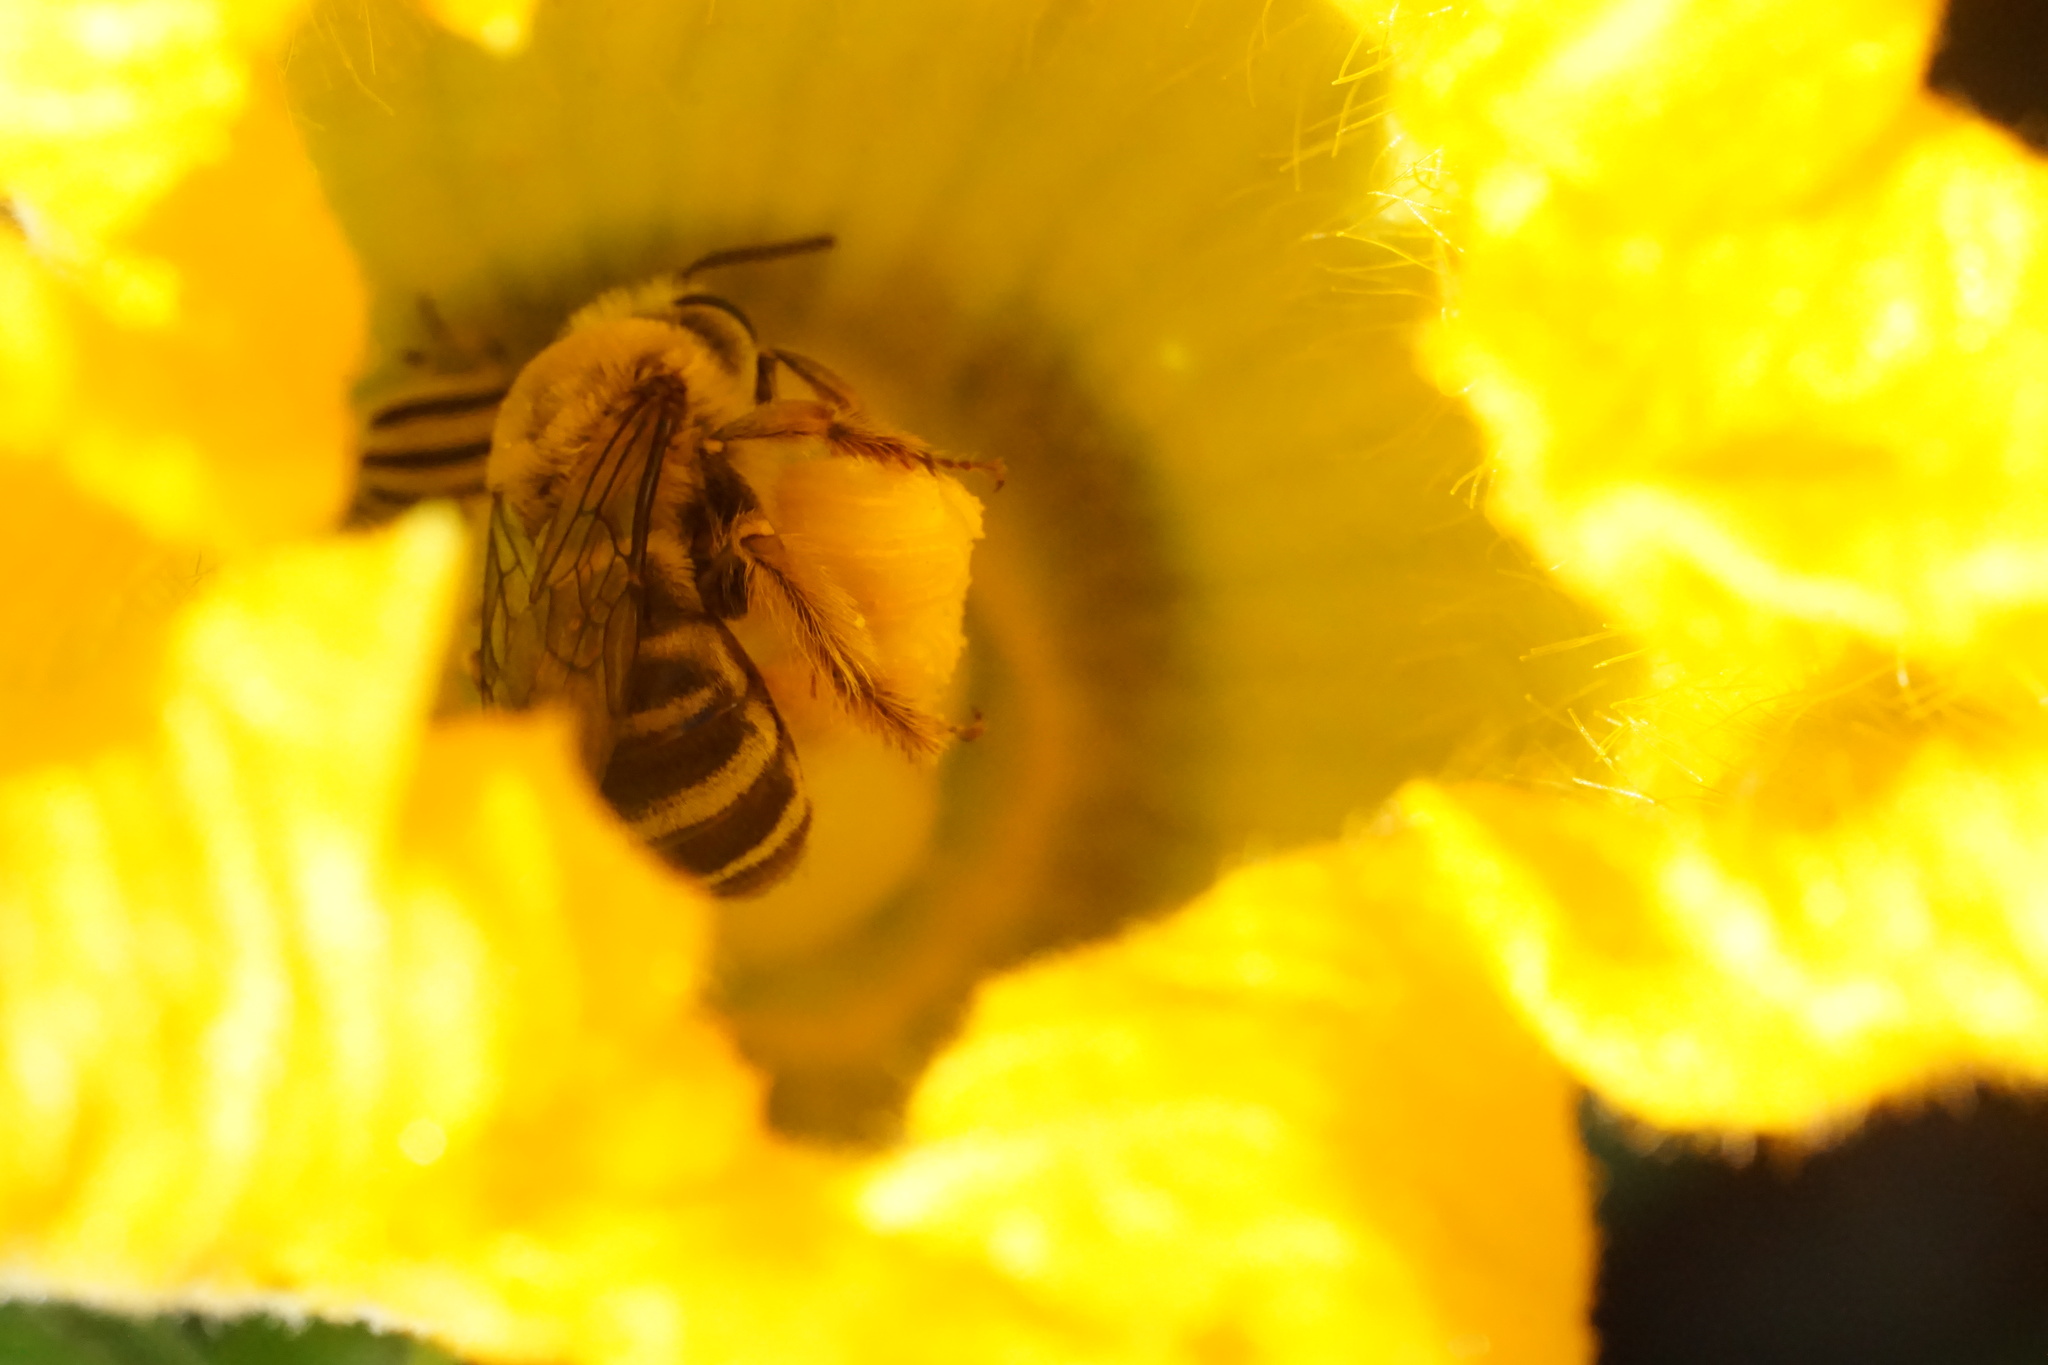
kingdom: Animalia
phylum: Arthropoda
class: Insecta
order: Hymenoptera
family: Apidae
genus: Peponapis
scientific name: Peponapis pruinosa
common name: Pruinose squash bee
